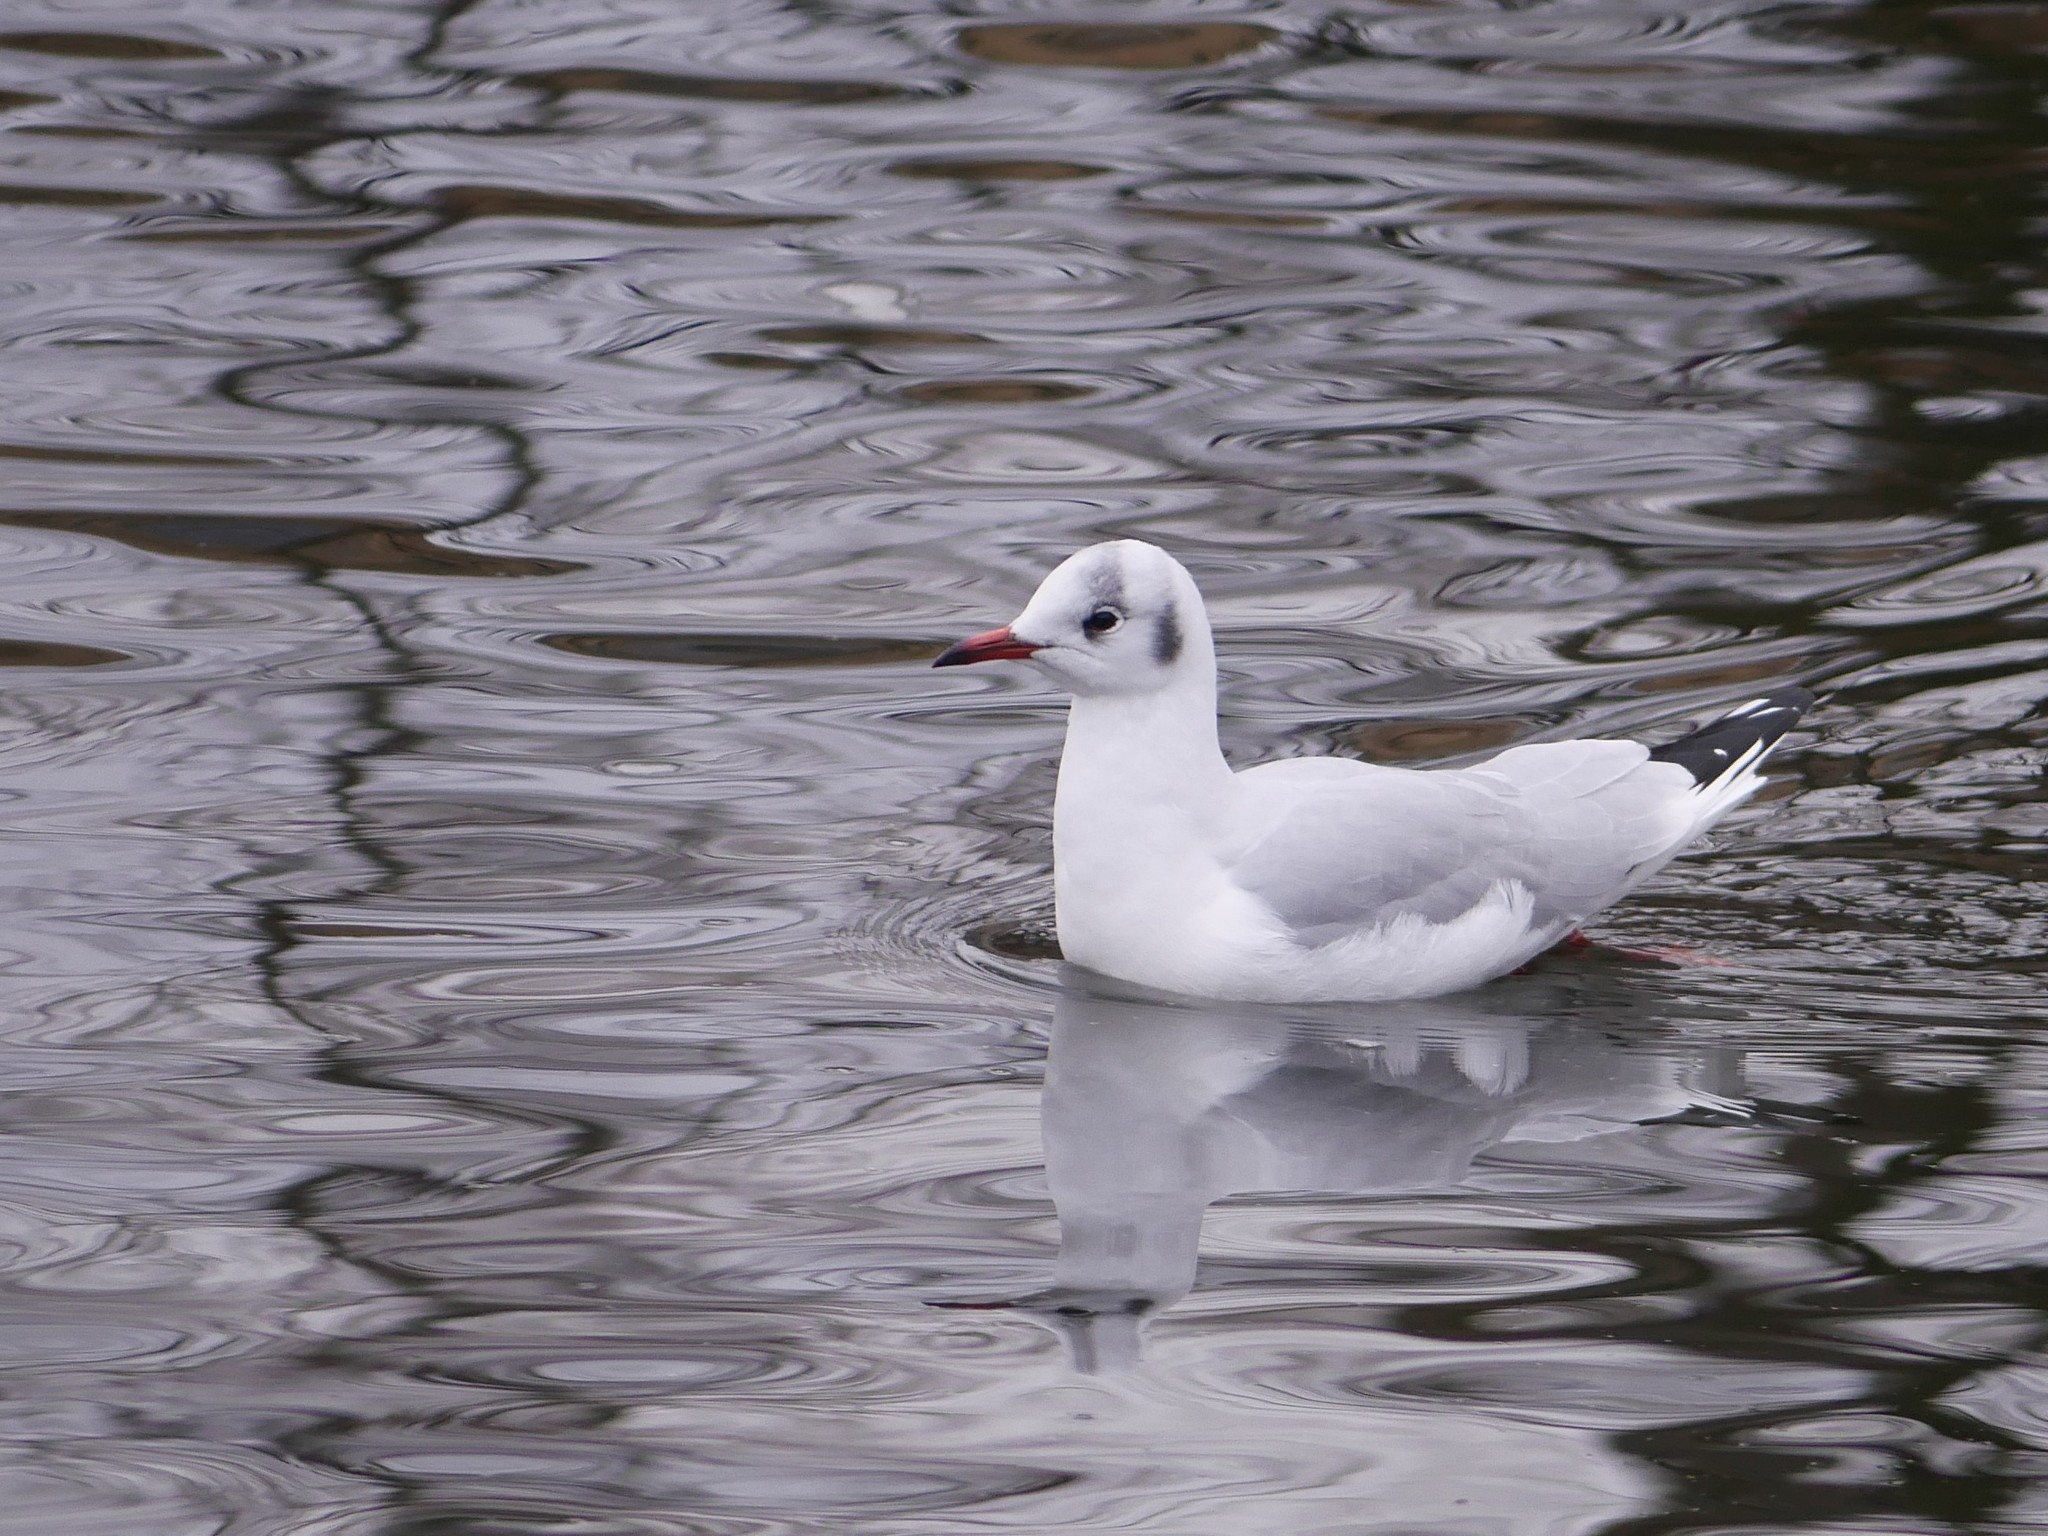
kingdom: Animalia
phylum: Chordata
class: Aves
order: Charadriiformes
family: Laridae
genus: Chroicocephalus
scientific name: Chroicocephalus ridibundus
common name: Black-headed gull
